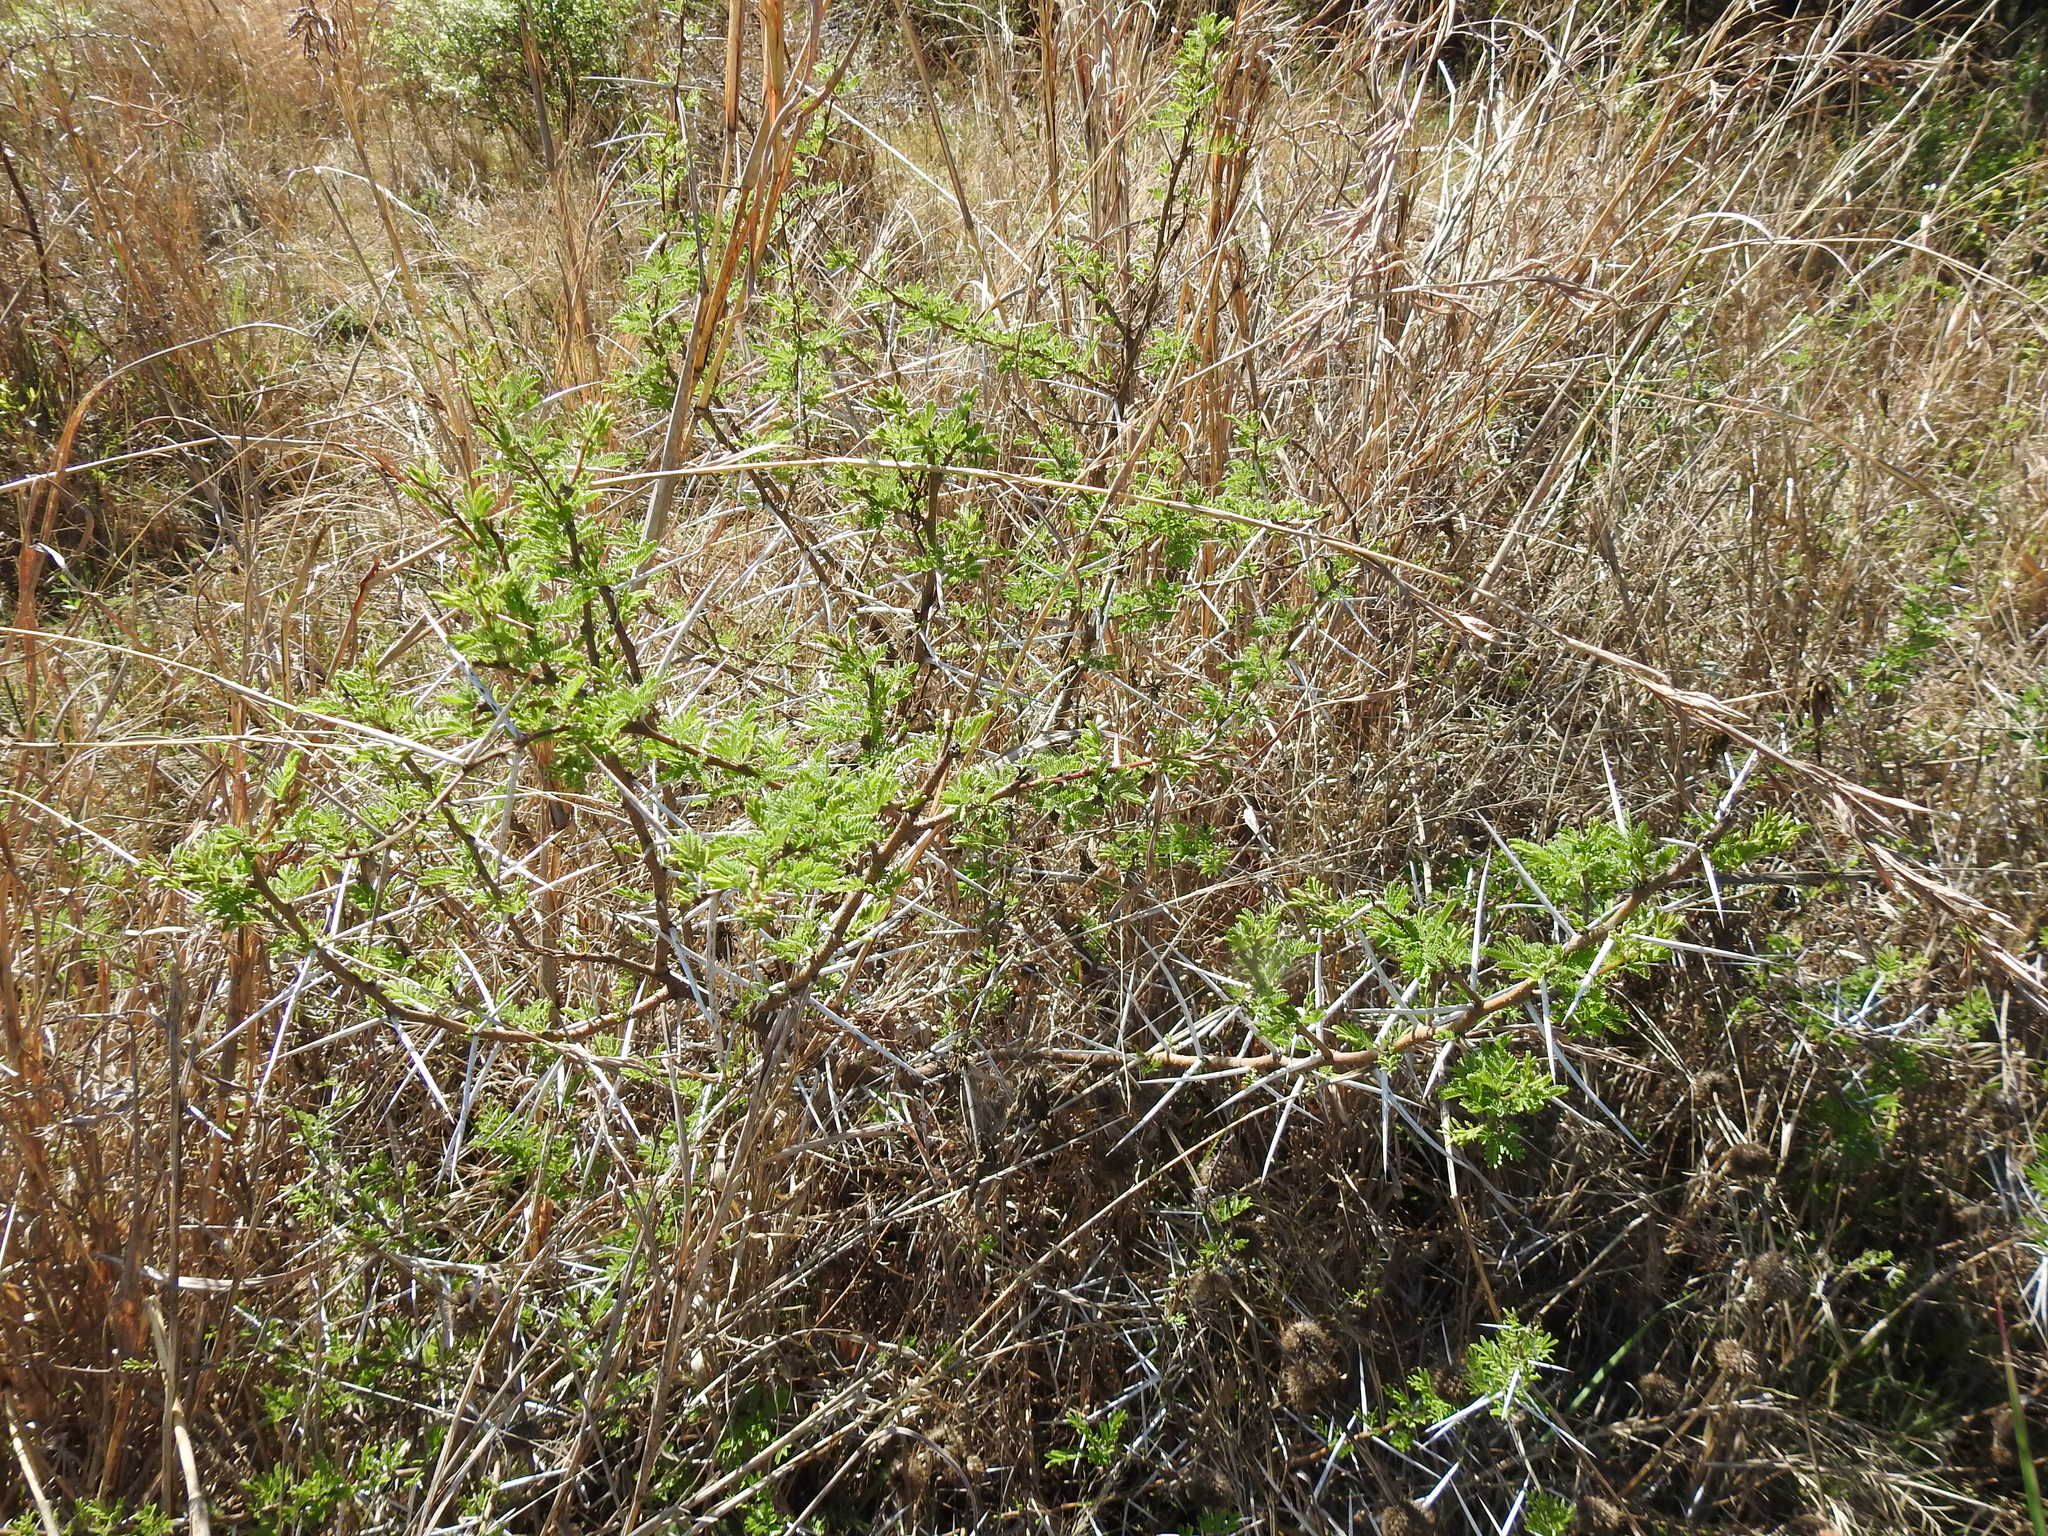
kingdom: Plantae
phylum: Tracheophyta
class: Magnoliopsida
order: Fabales
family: Fabaceae
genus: Vachellia
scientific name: Vachellia karroo
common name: Sweet thorn
